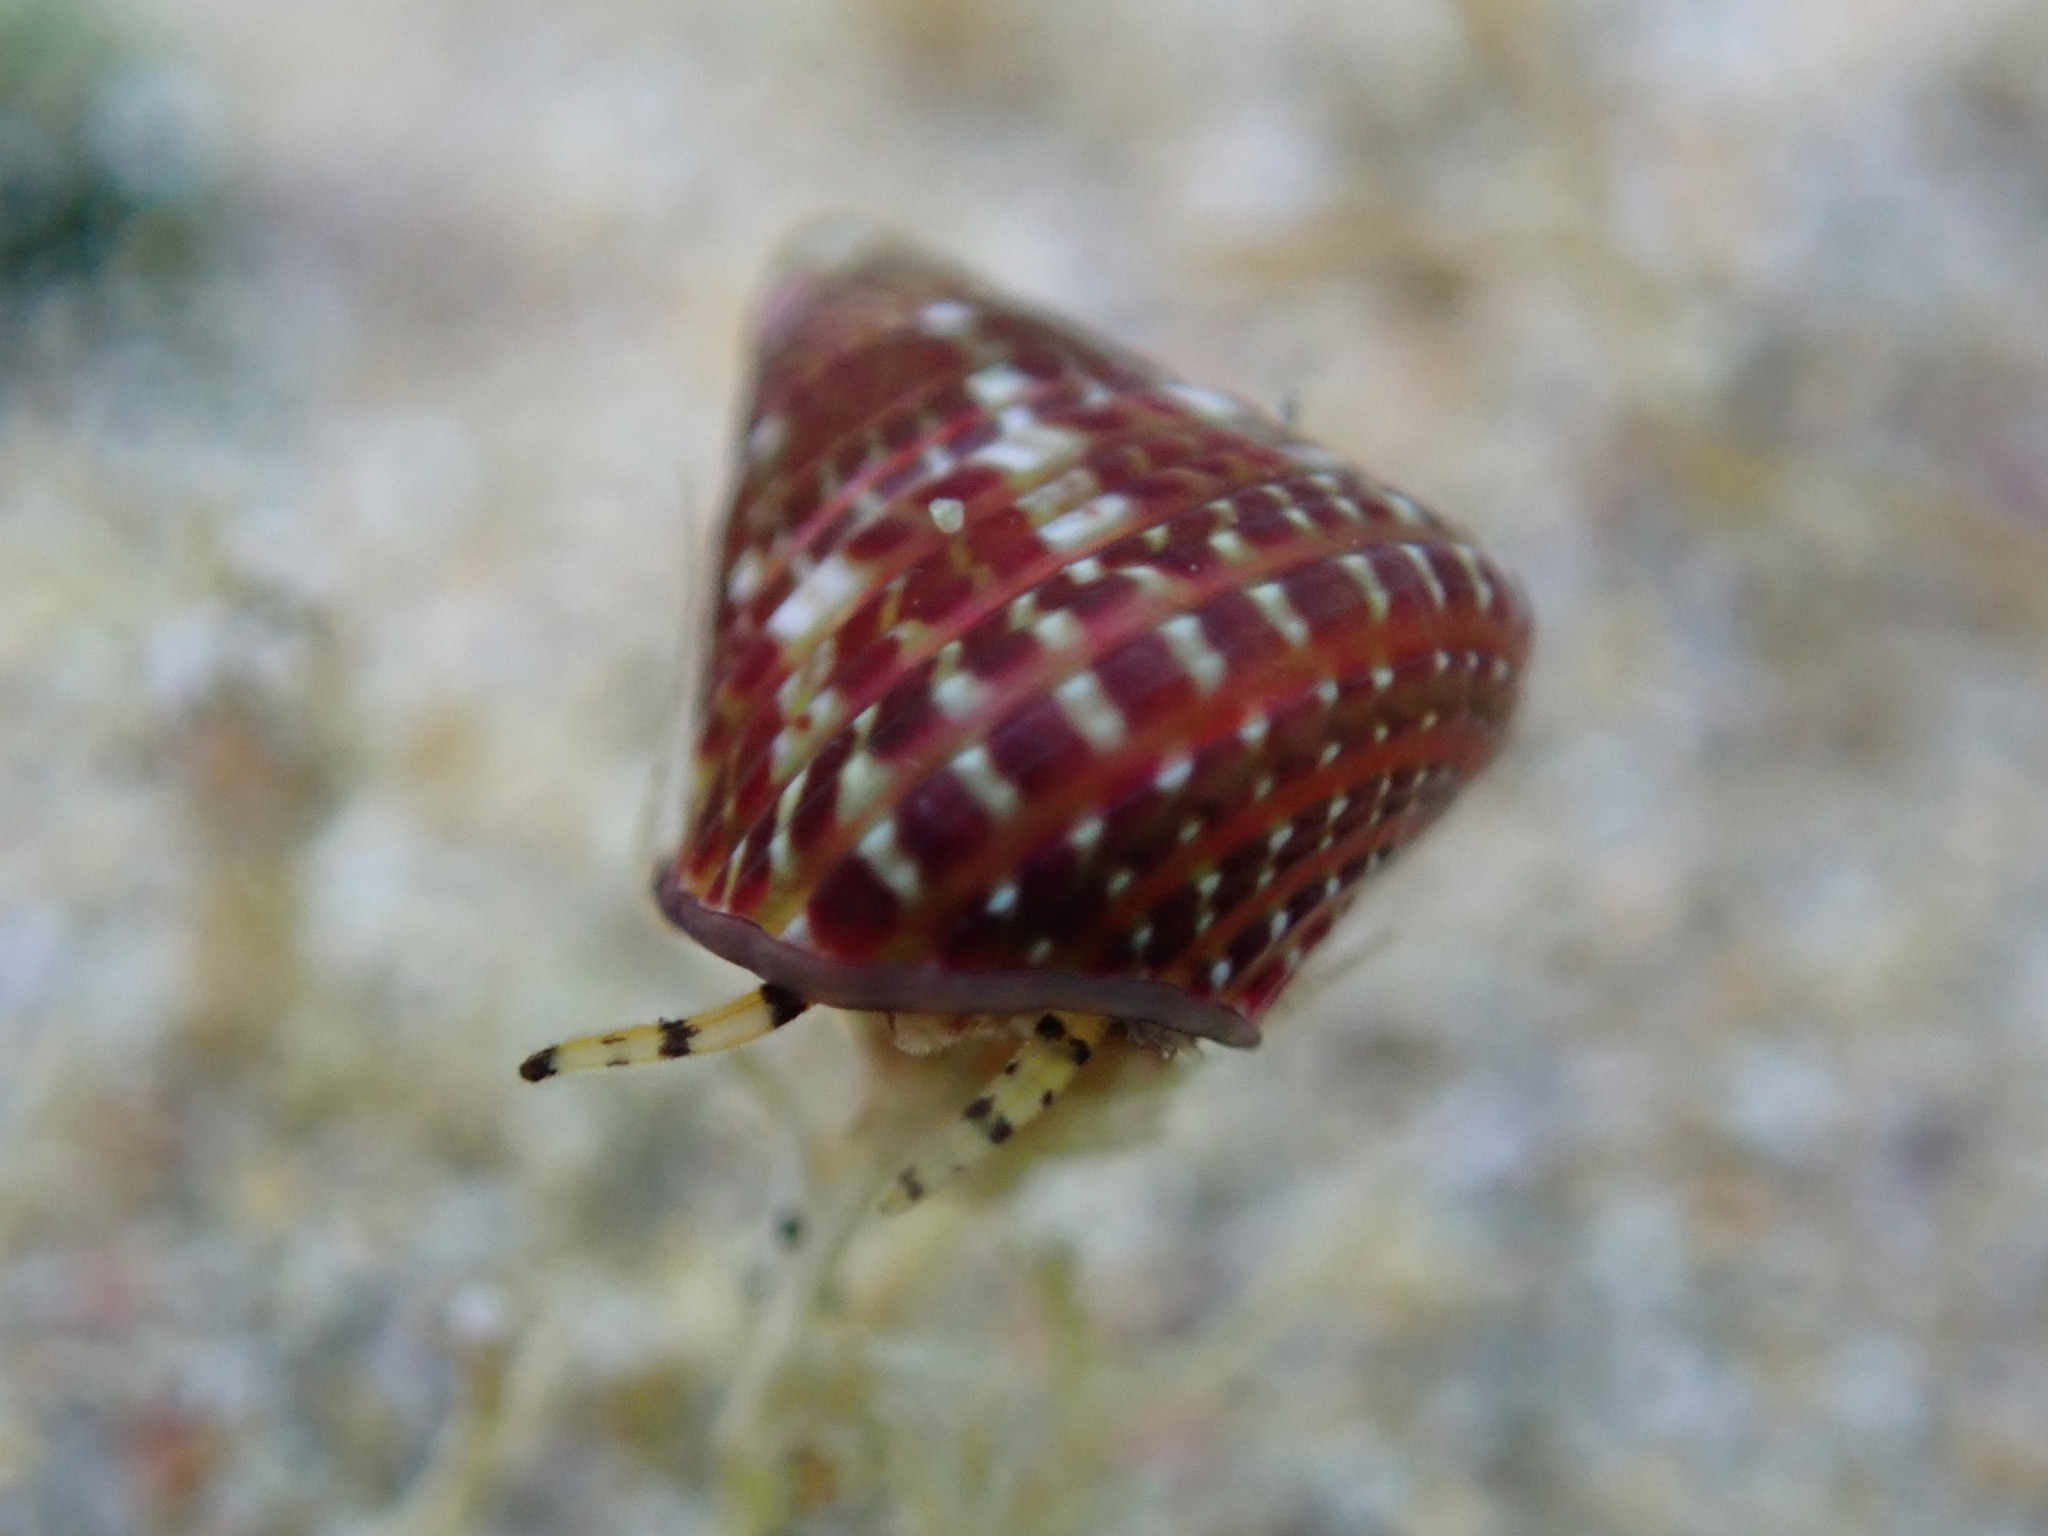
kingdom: Animalia
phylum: Mollusca
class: Gastropoda
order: Trochida
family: Trochidae
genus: Prothalotia
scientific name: Prothalotia pulcherrima
